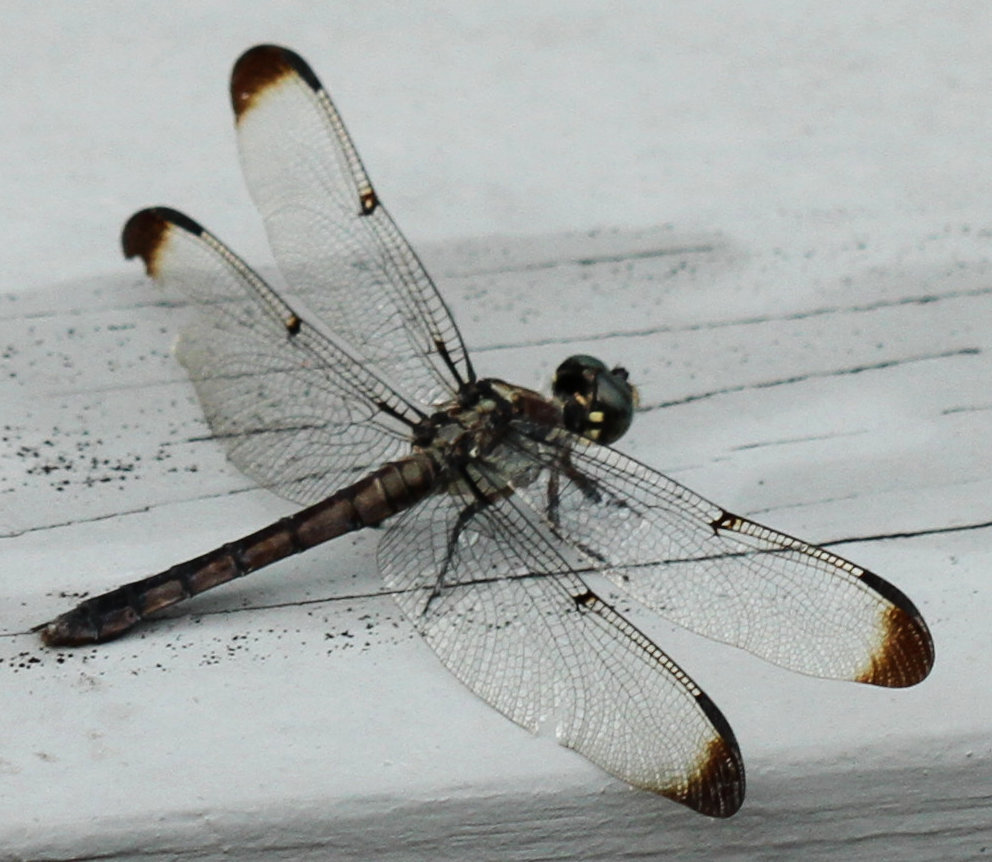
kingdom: Animalia
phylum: Arthropoda
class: Insecta
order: Odonata
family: Libellulidae
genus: Libellula
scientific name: Libellula vibrans
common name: Great blue skimmer
